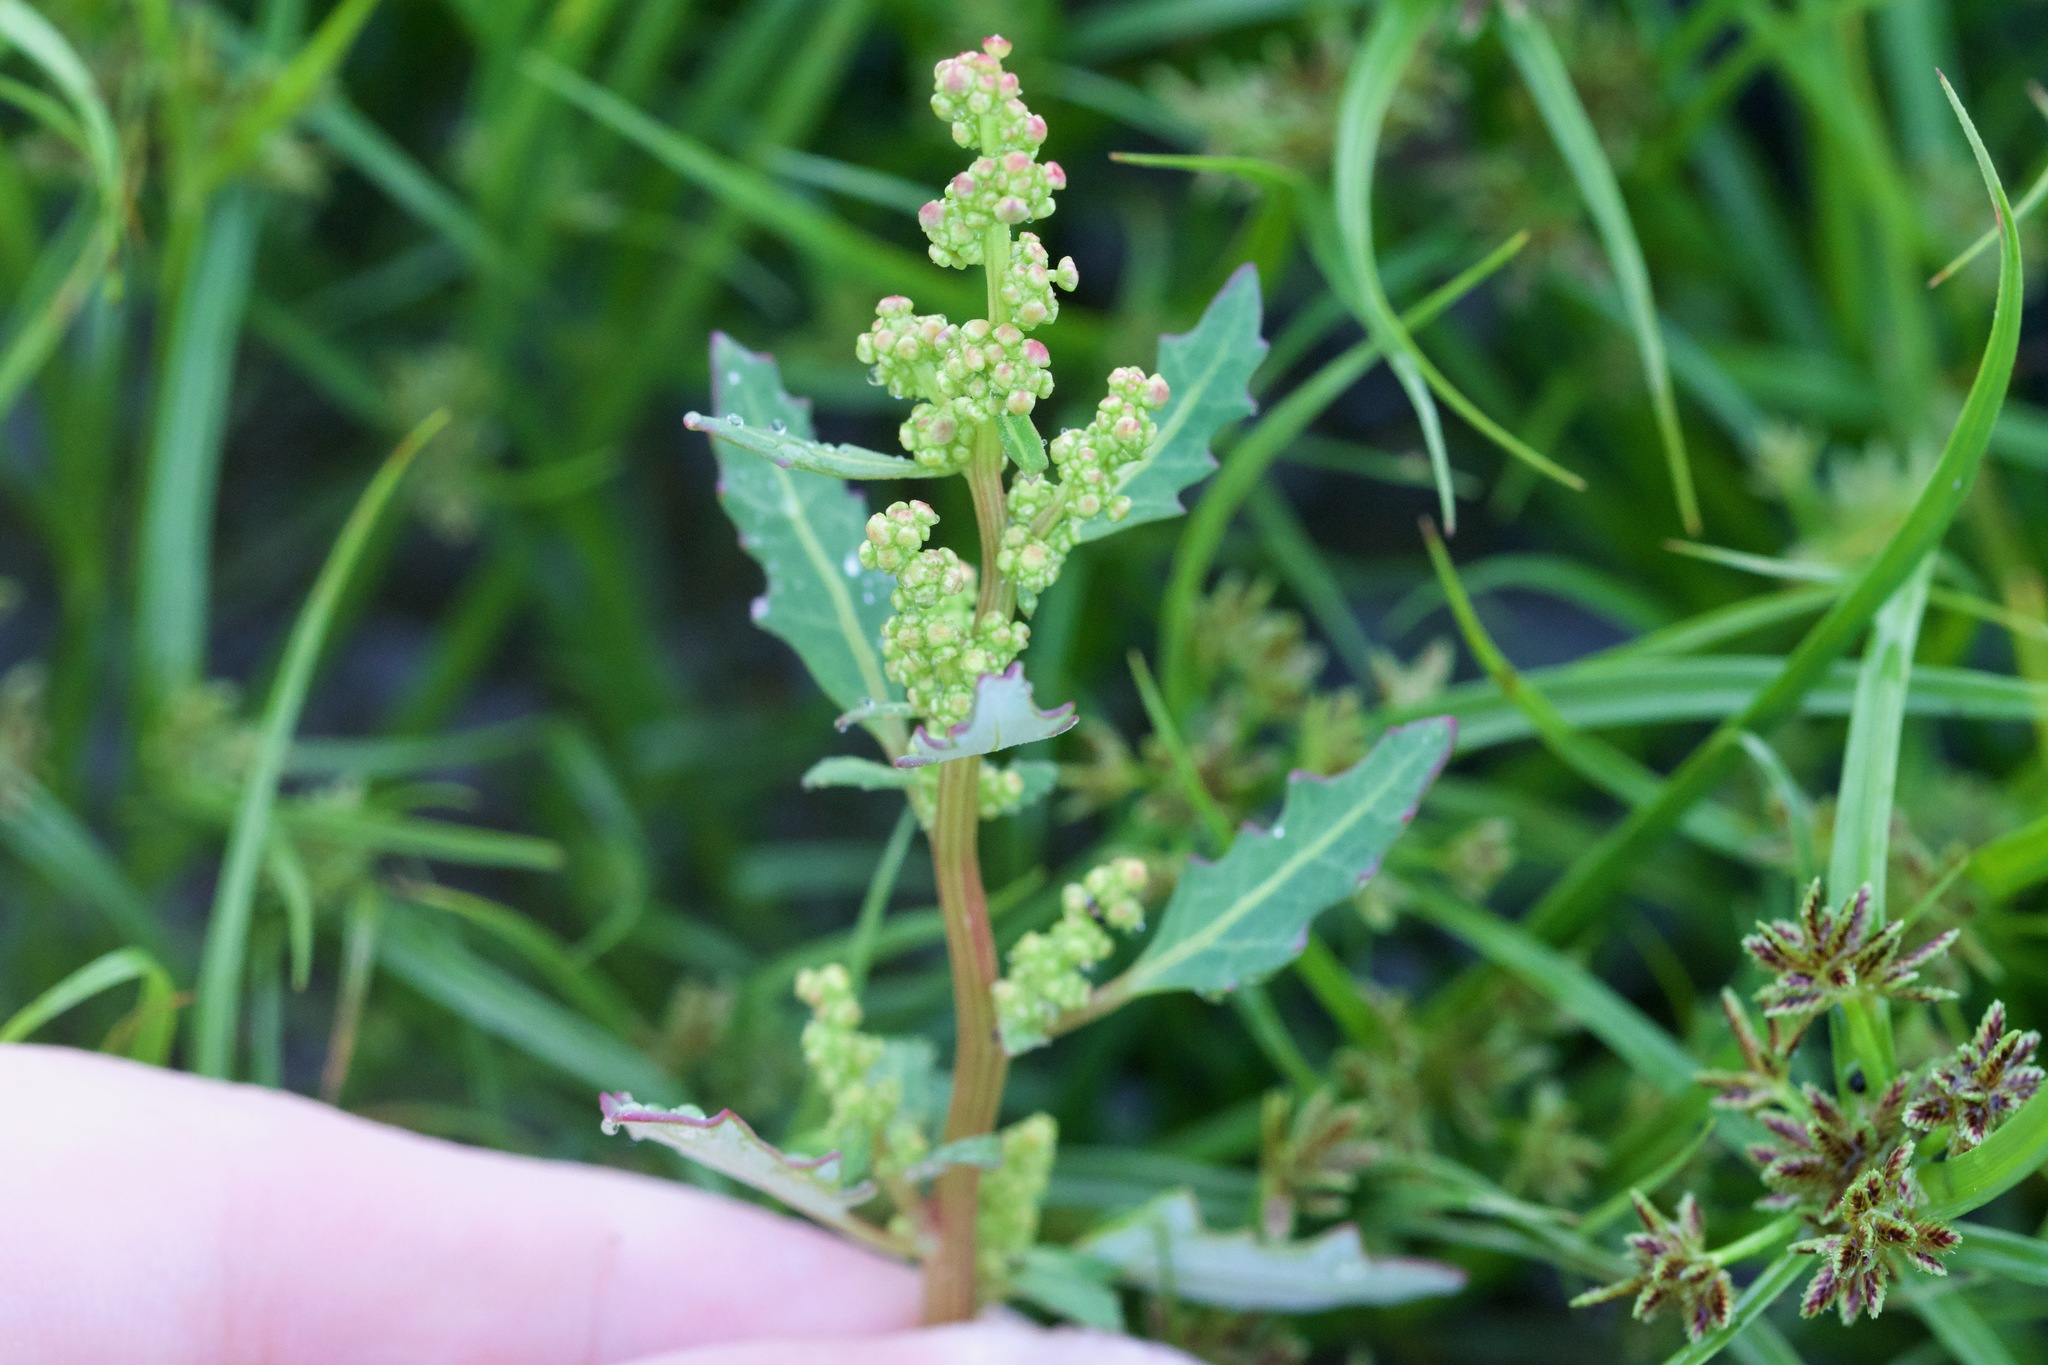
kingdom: Plantae
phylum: Tracheophyta
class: Magnoliopsida
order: Caryophyllales
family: Amaranthaceae
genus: Oxybasis
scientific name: Oxybasis glauca
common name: Glaucous goosefoot
